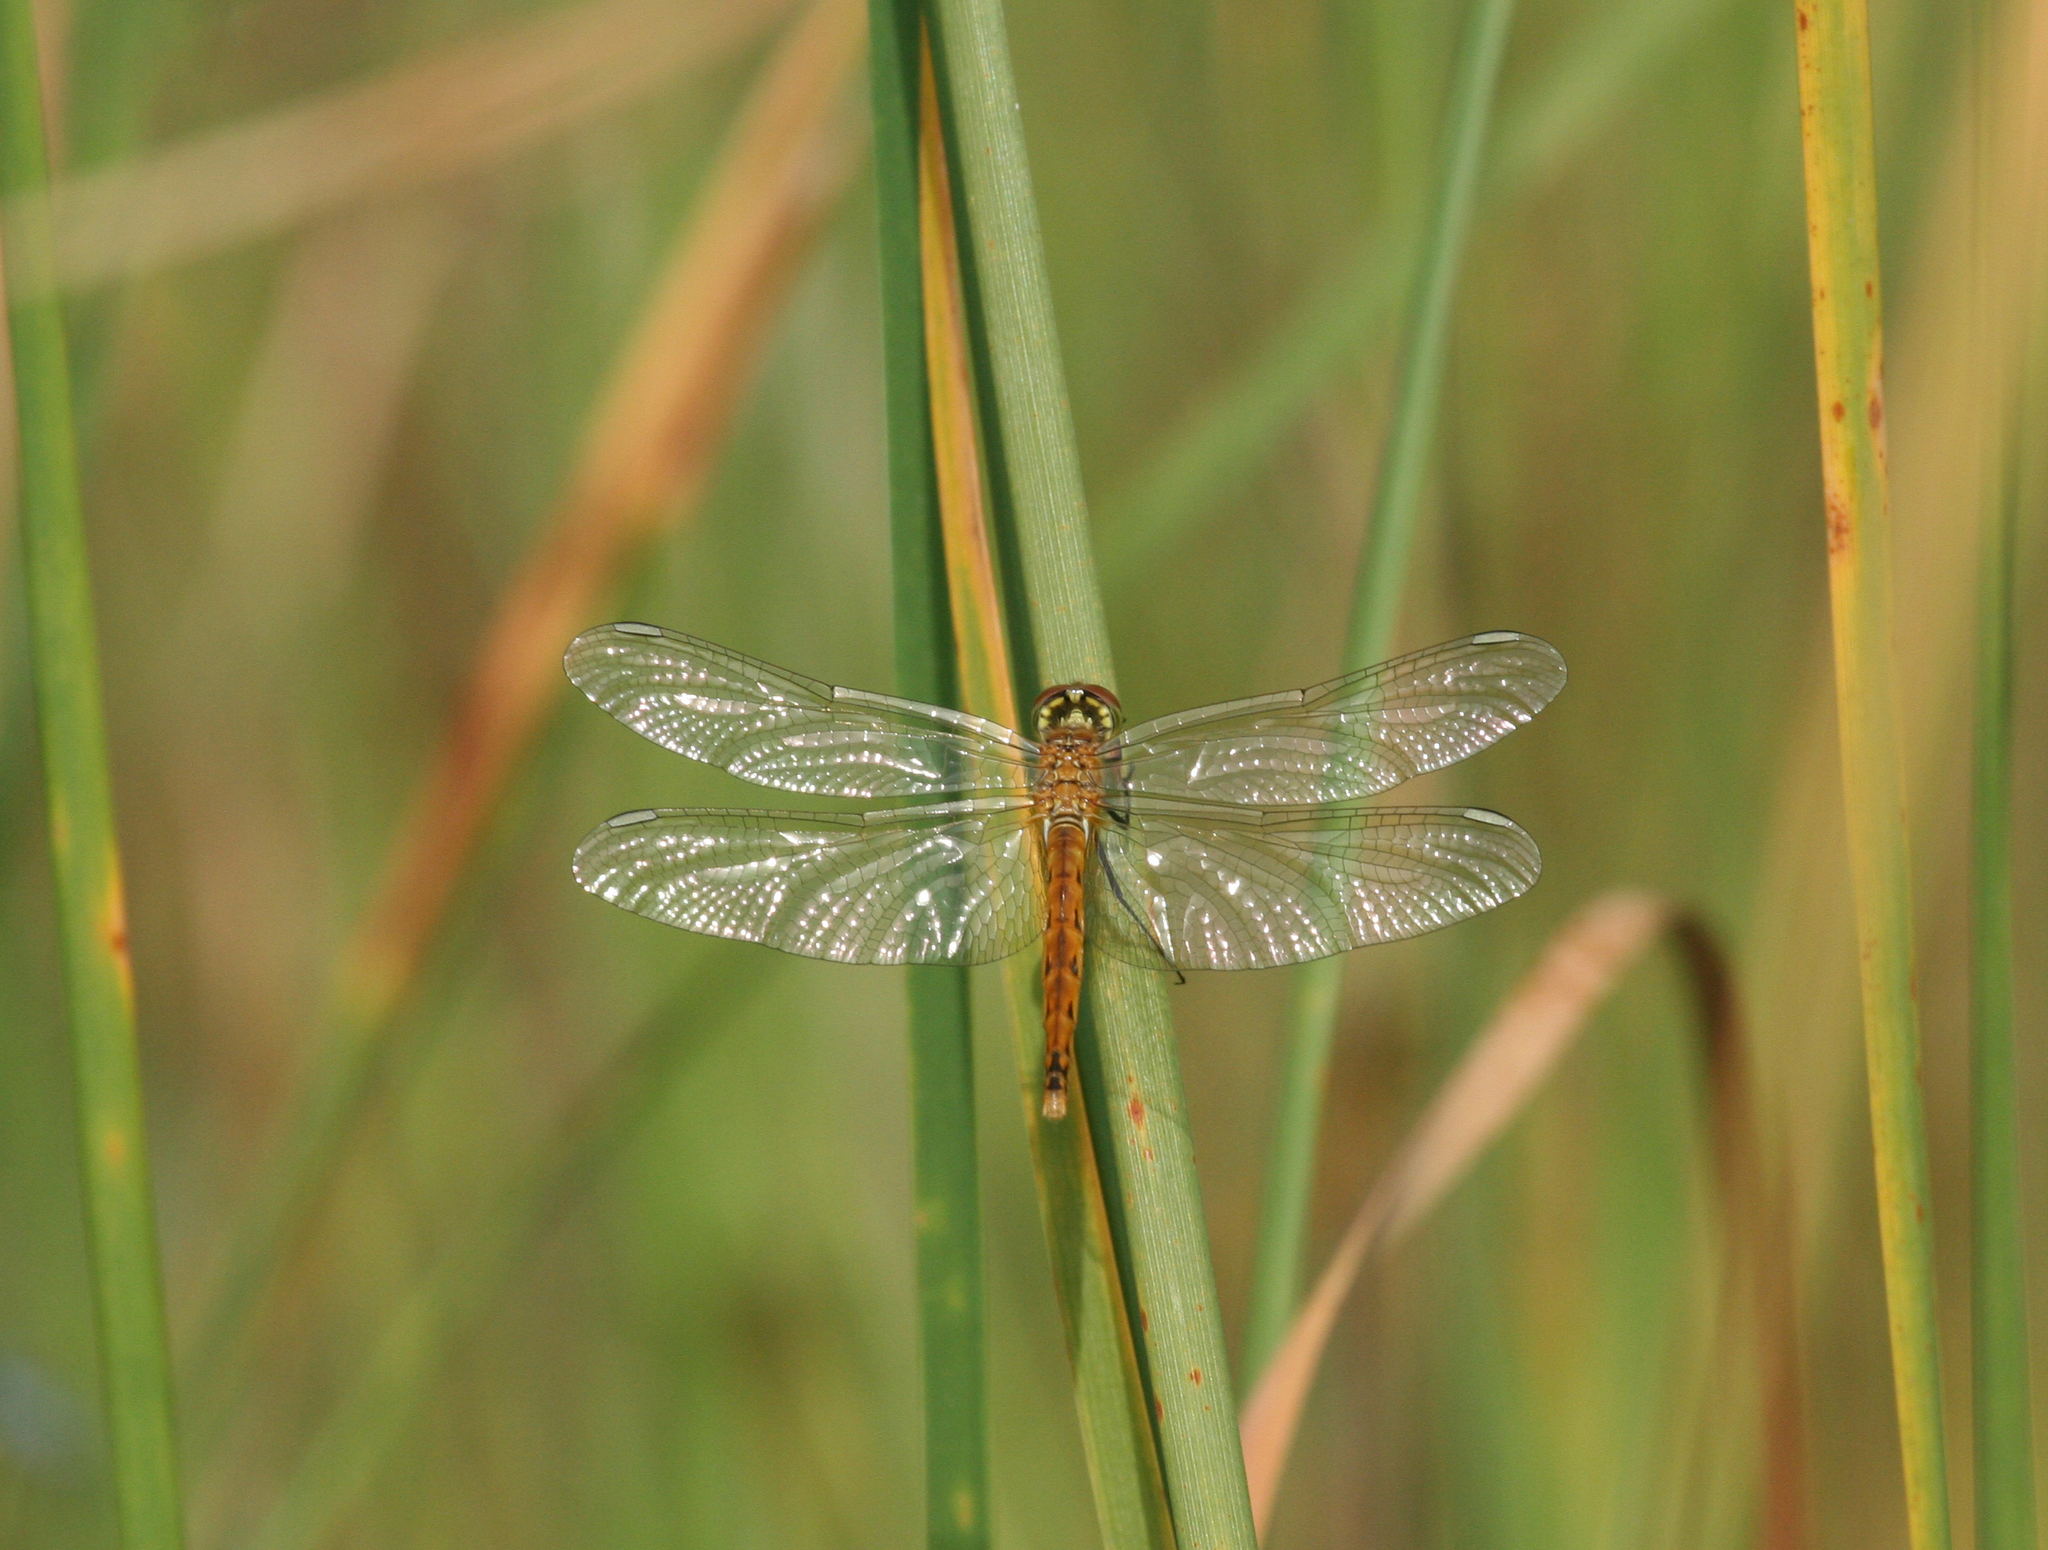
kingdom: Animalia
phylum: Arthropoda
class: Insecta
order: Odonata
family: Libellulidae
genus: Sympetrum
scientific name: Sympetrum depressiusculum
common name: Spotted darter
